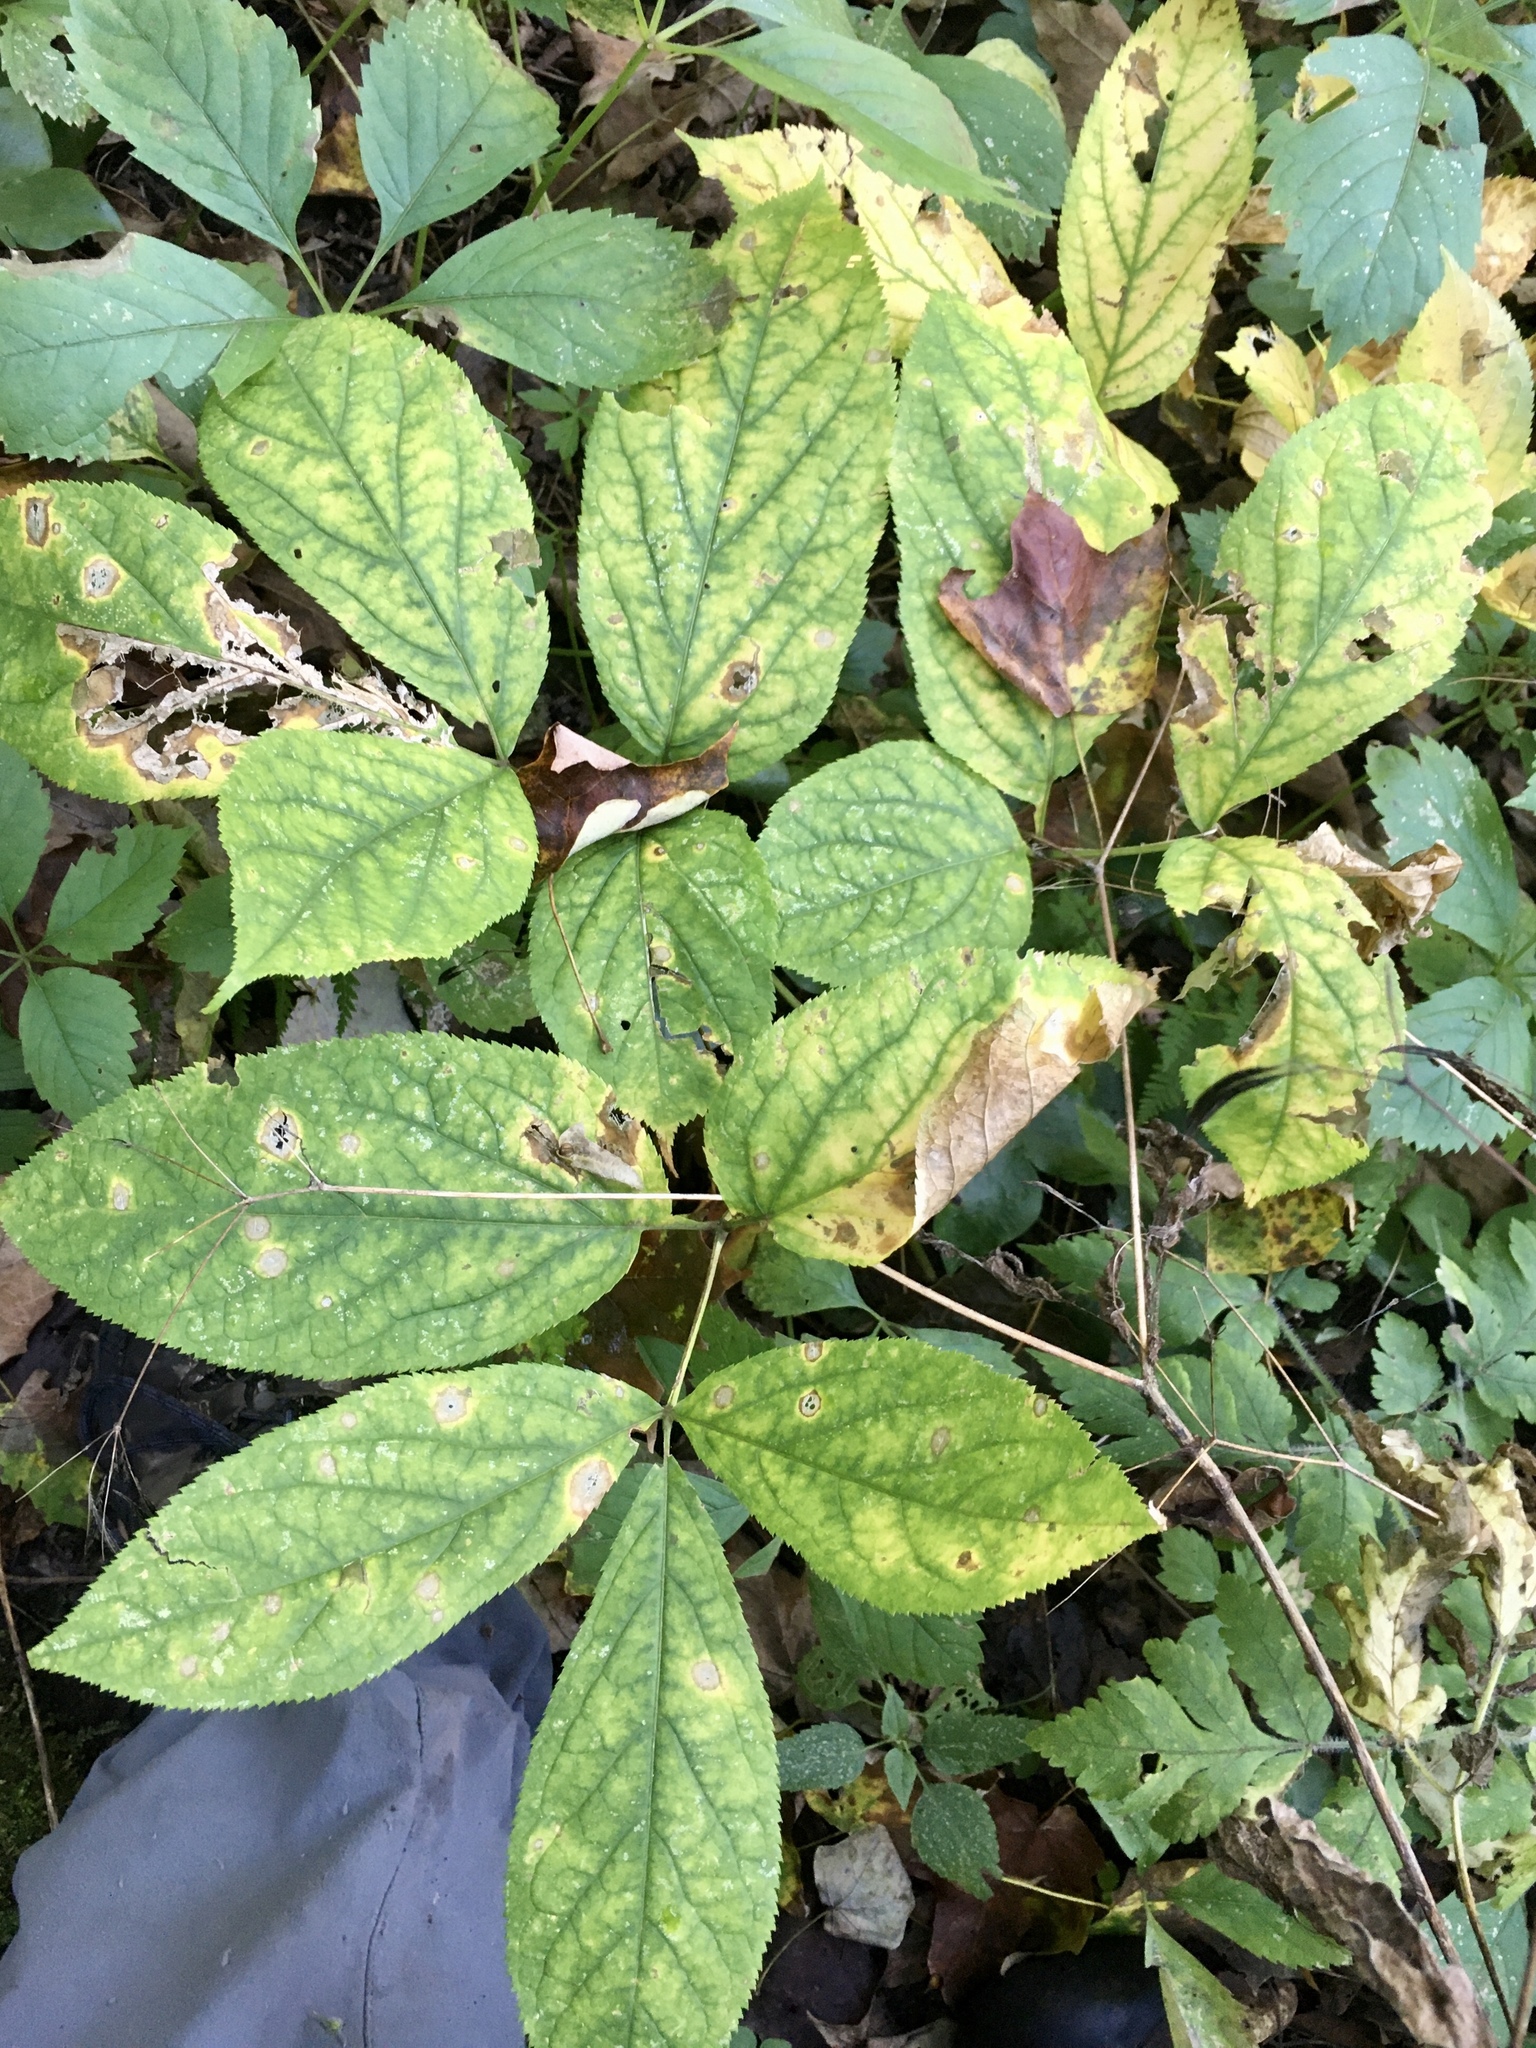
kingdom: Plantae
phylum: Tracheophyta
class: Magnoliopsida
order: Apiales
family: Araliaceae
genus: Aralia
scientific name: Aralia nudicaulis
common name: Wild sarsaparilla
